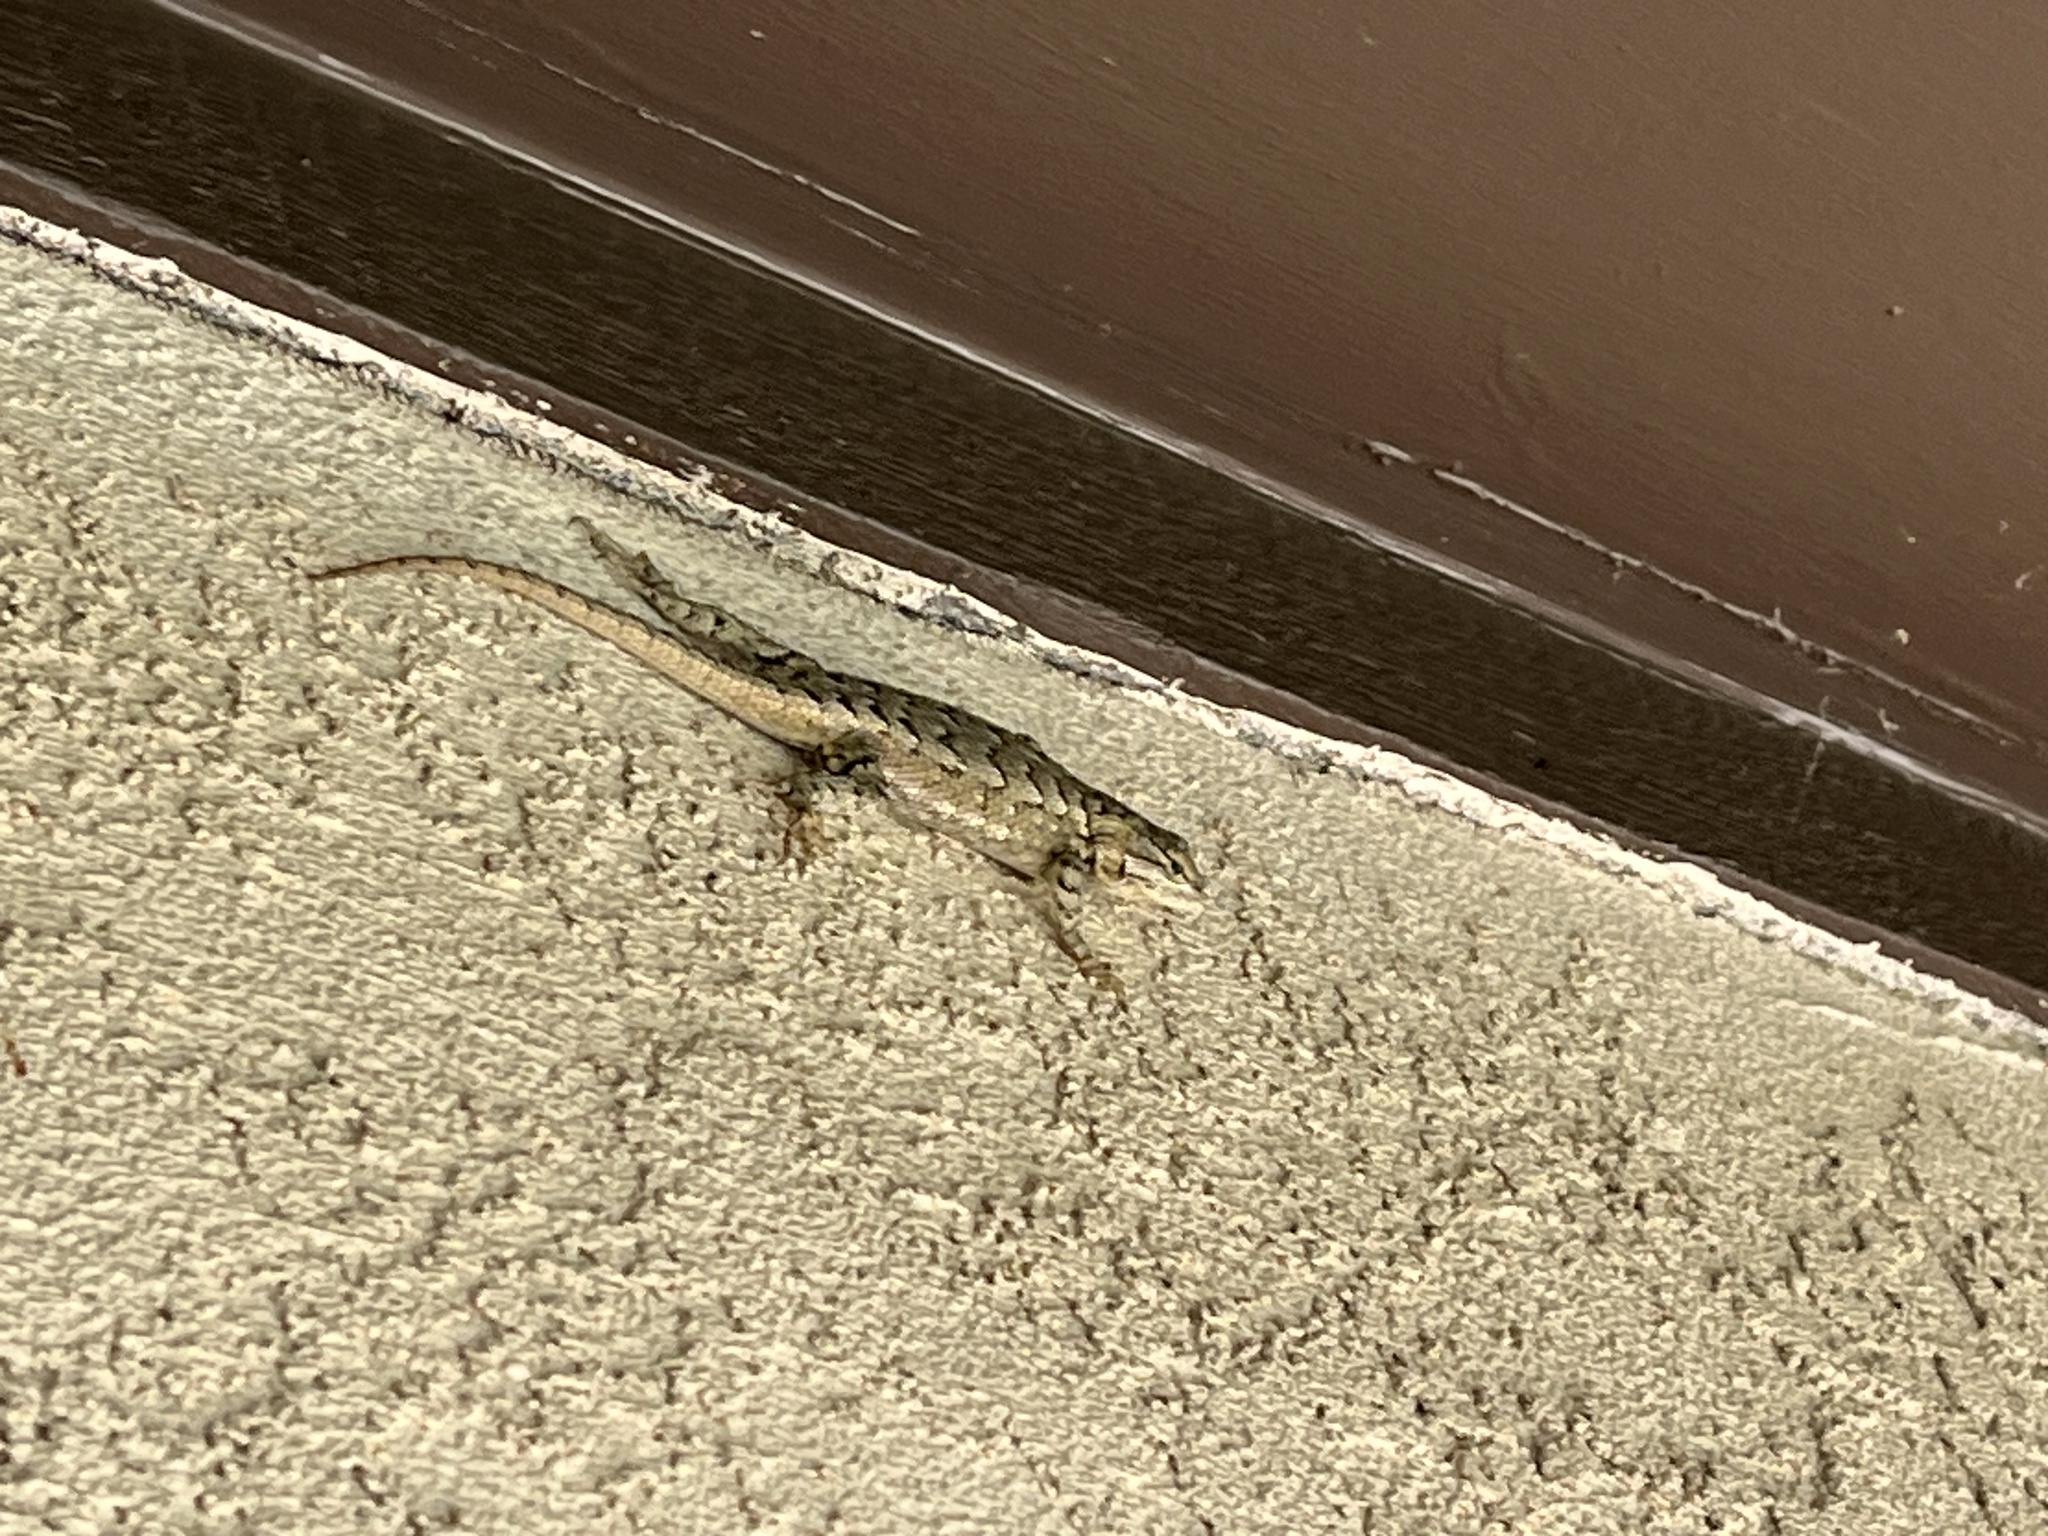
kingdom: Animalia
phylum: Chordata
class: Squamata
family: Phrynosomatidae
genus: Sceloporus
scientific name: Sceloporus consobrinus
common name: Southern prairie lizard
